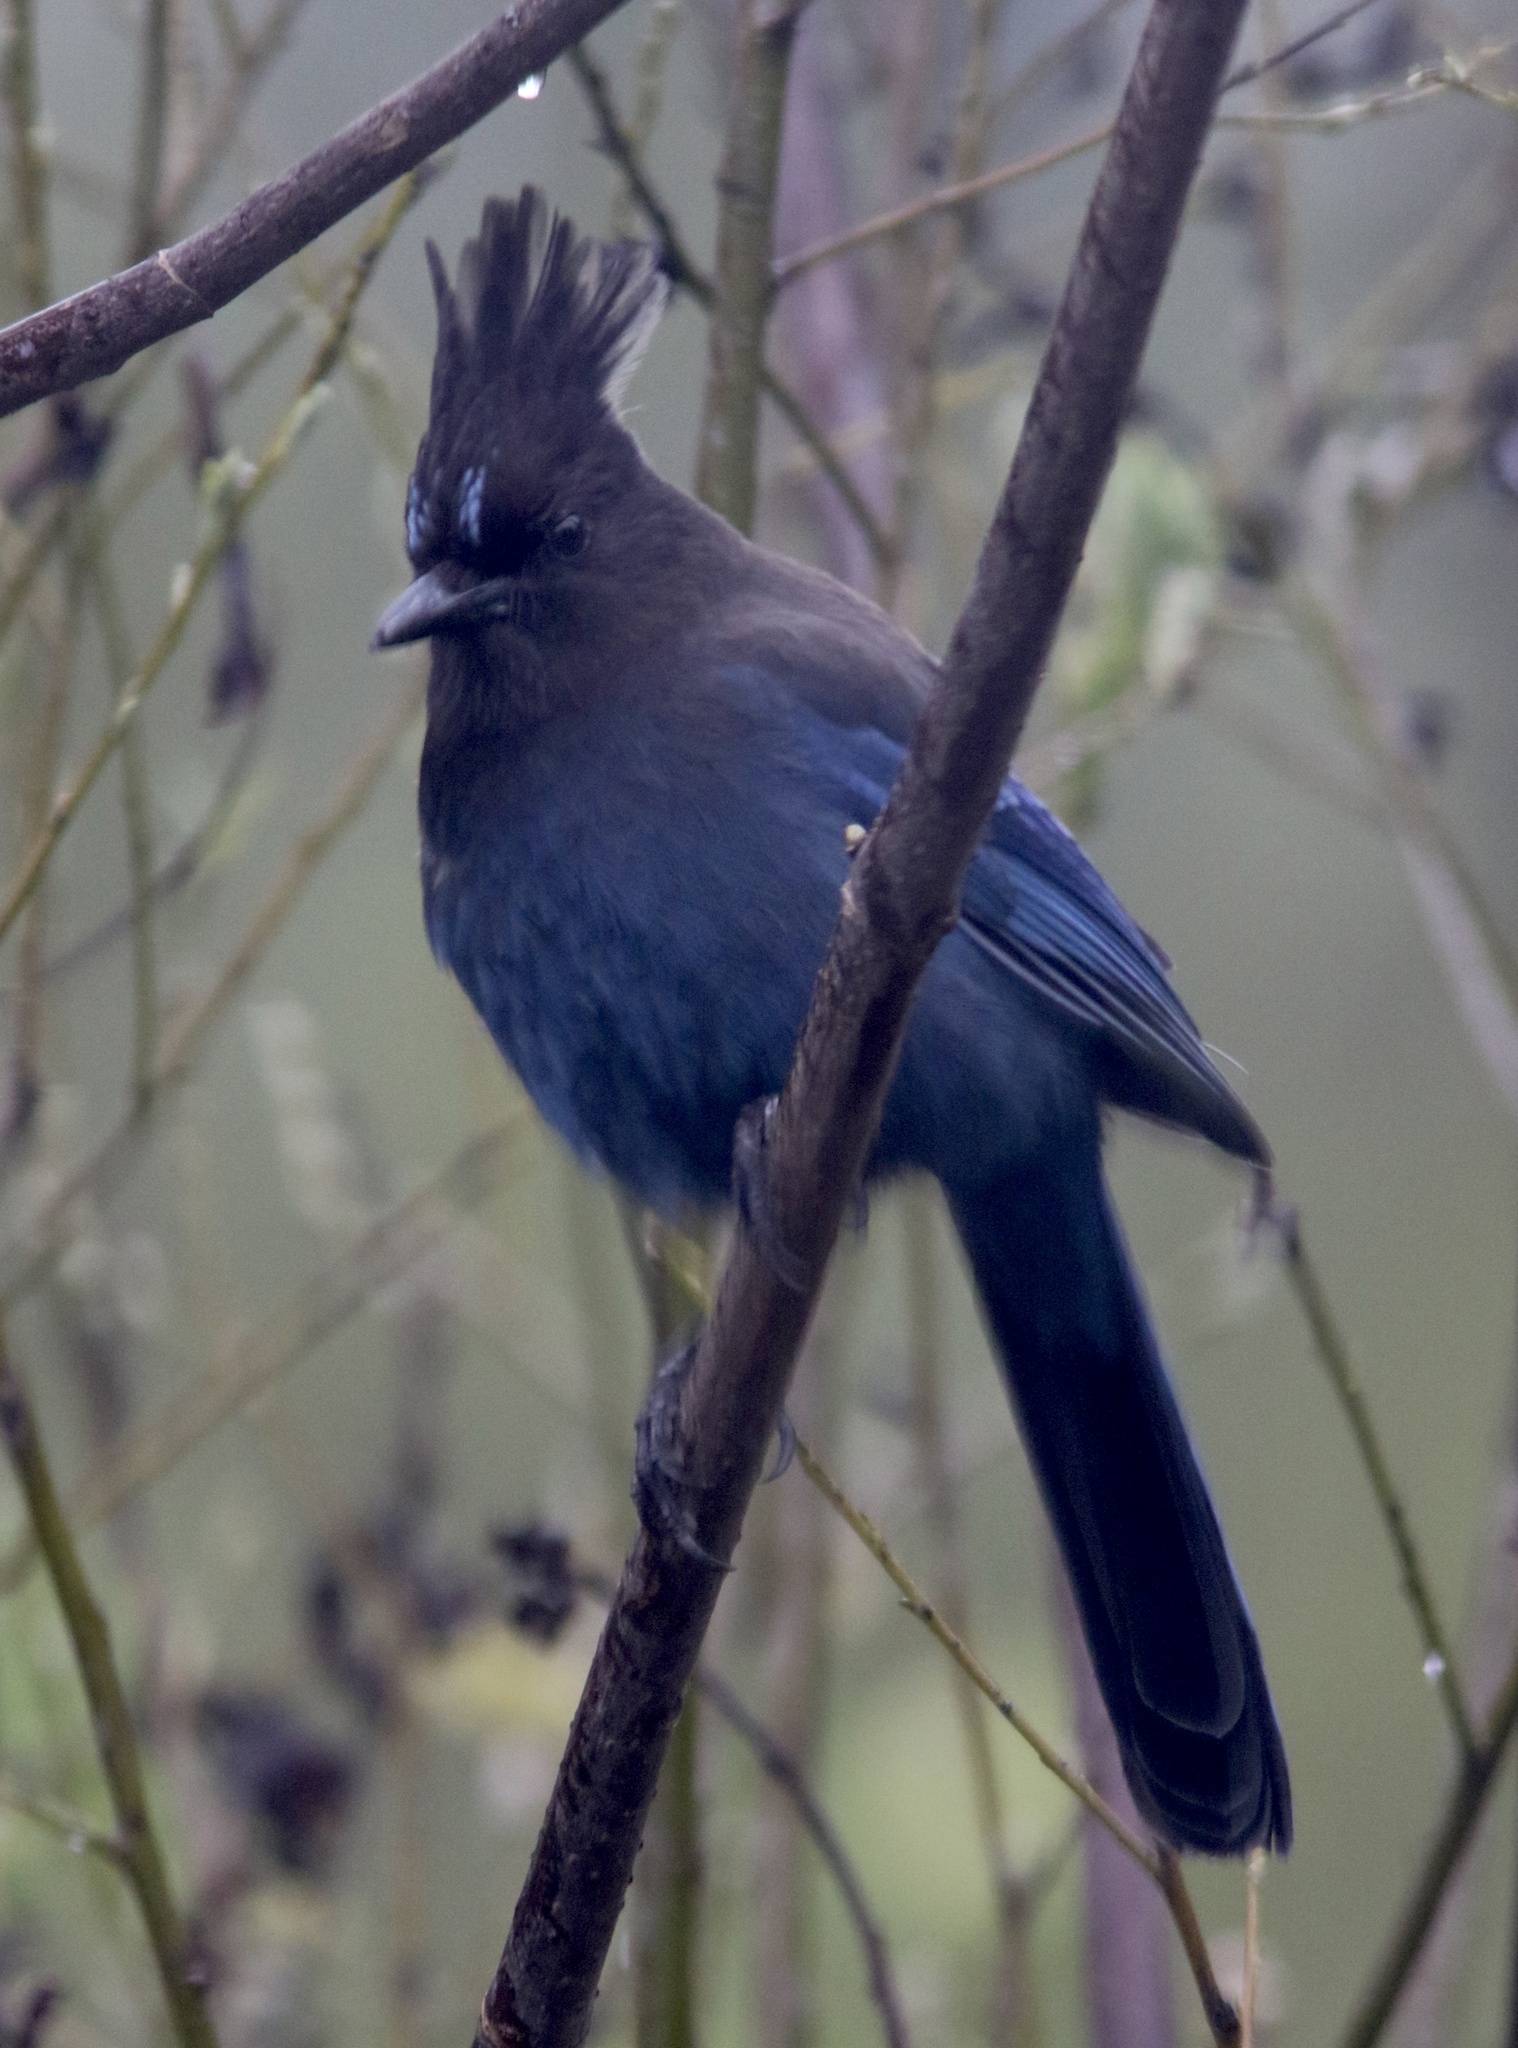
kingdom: Animalia
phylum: Chordata
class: Aves
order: Passeriformes
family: Corvidae
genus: Cyanocitta
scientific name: Cyanocitta stelleri
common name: Steller's jay
